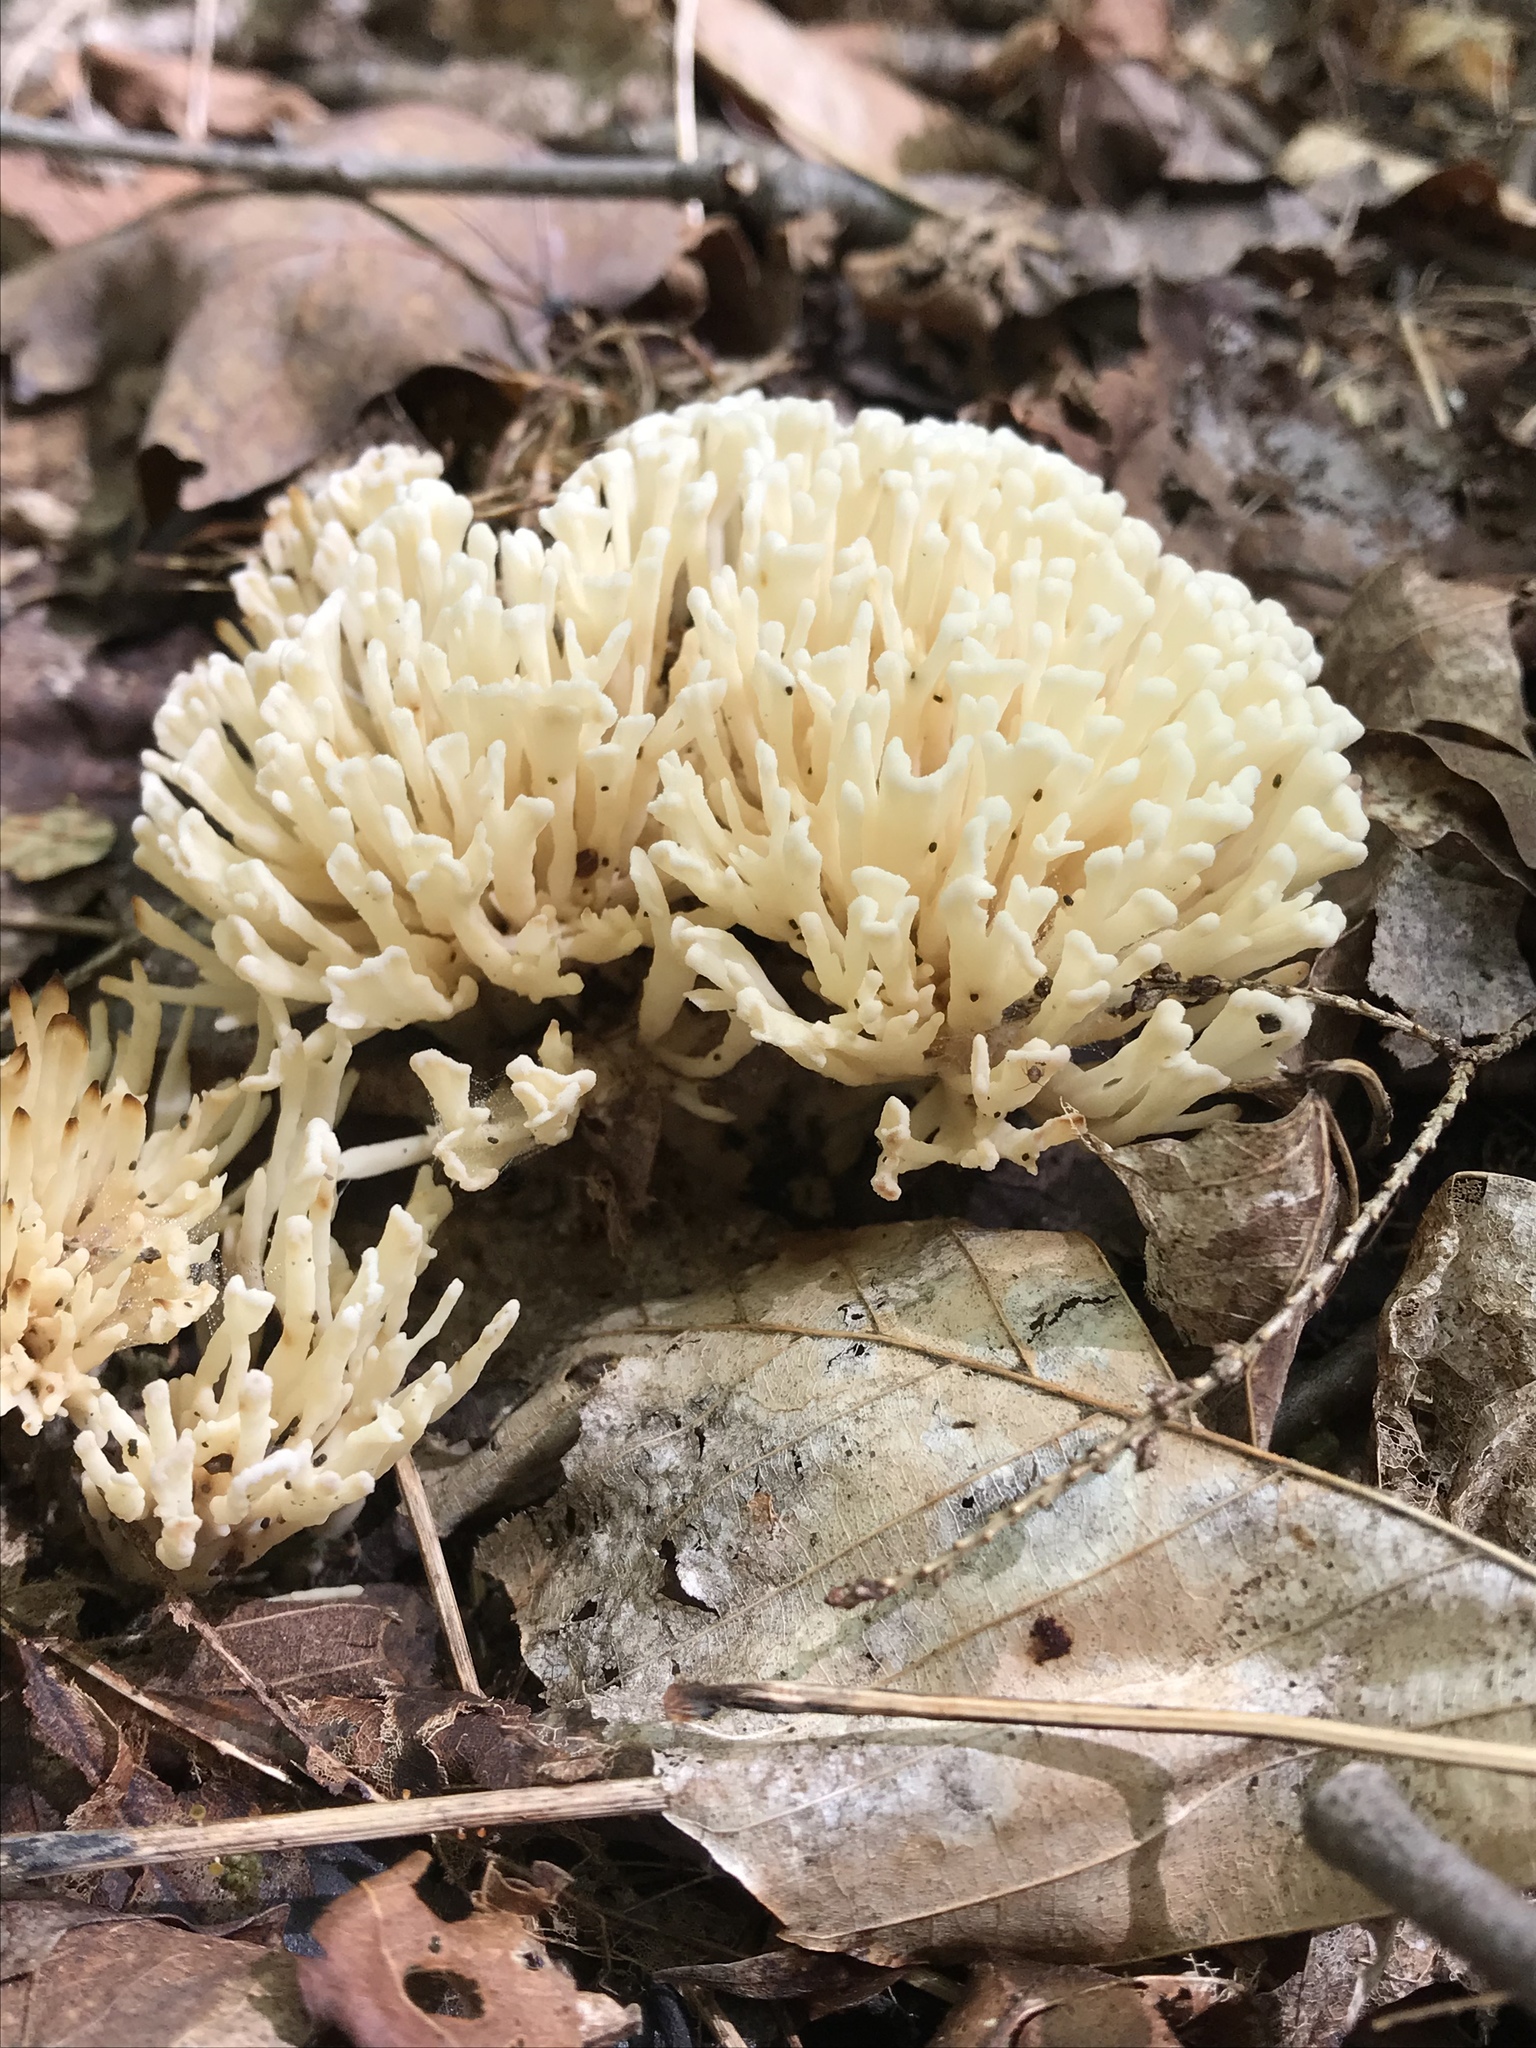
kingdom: Fungi
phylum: Basidiomycota
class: Agaricomycetes
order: Sebacinales
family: Sebacinaceae
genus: Sebacina
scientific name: Sebacina schweinitzii
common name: Jellied false coral fungus
